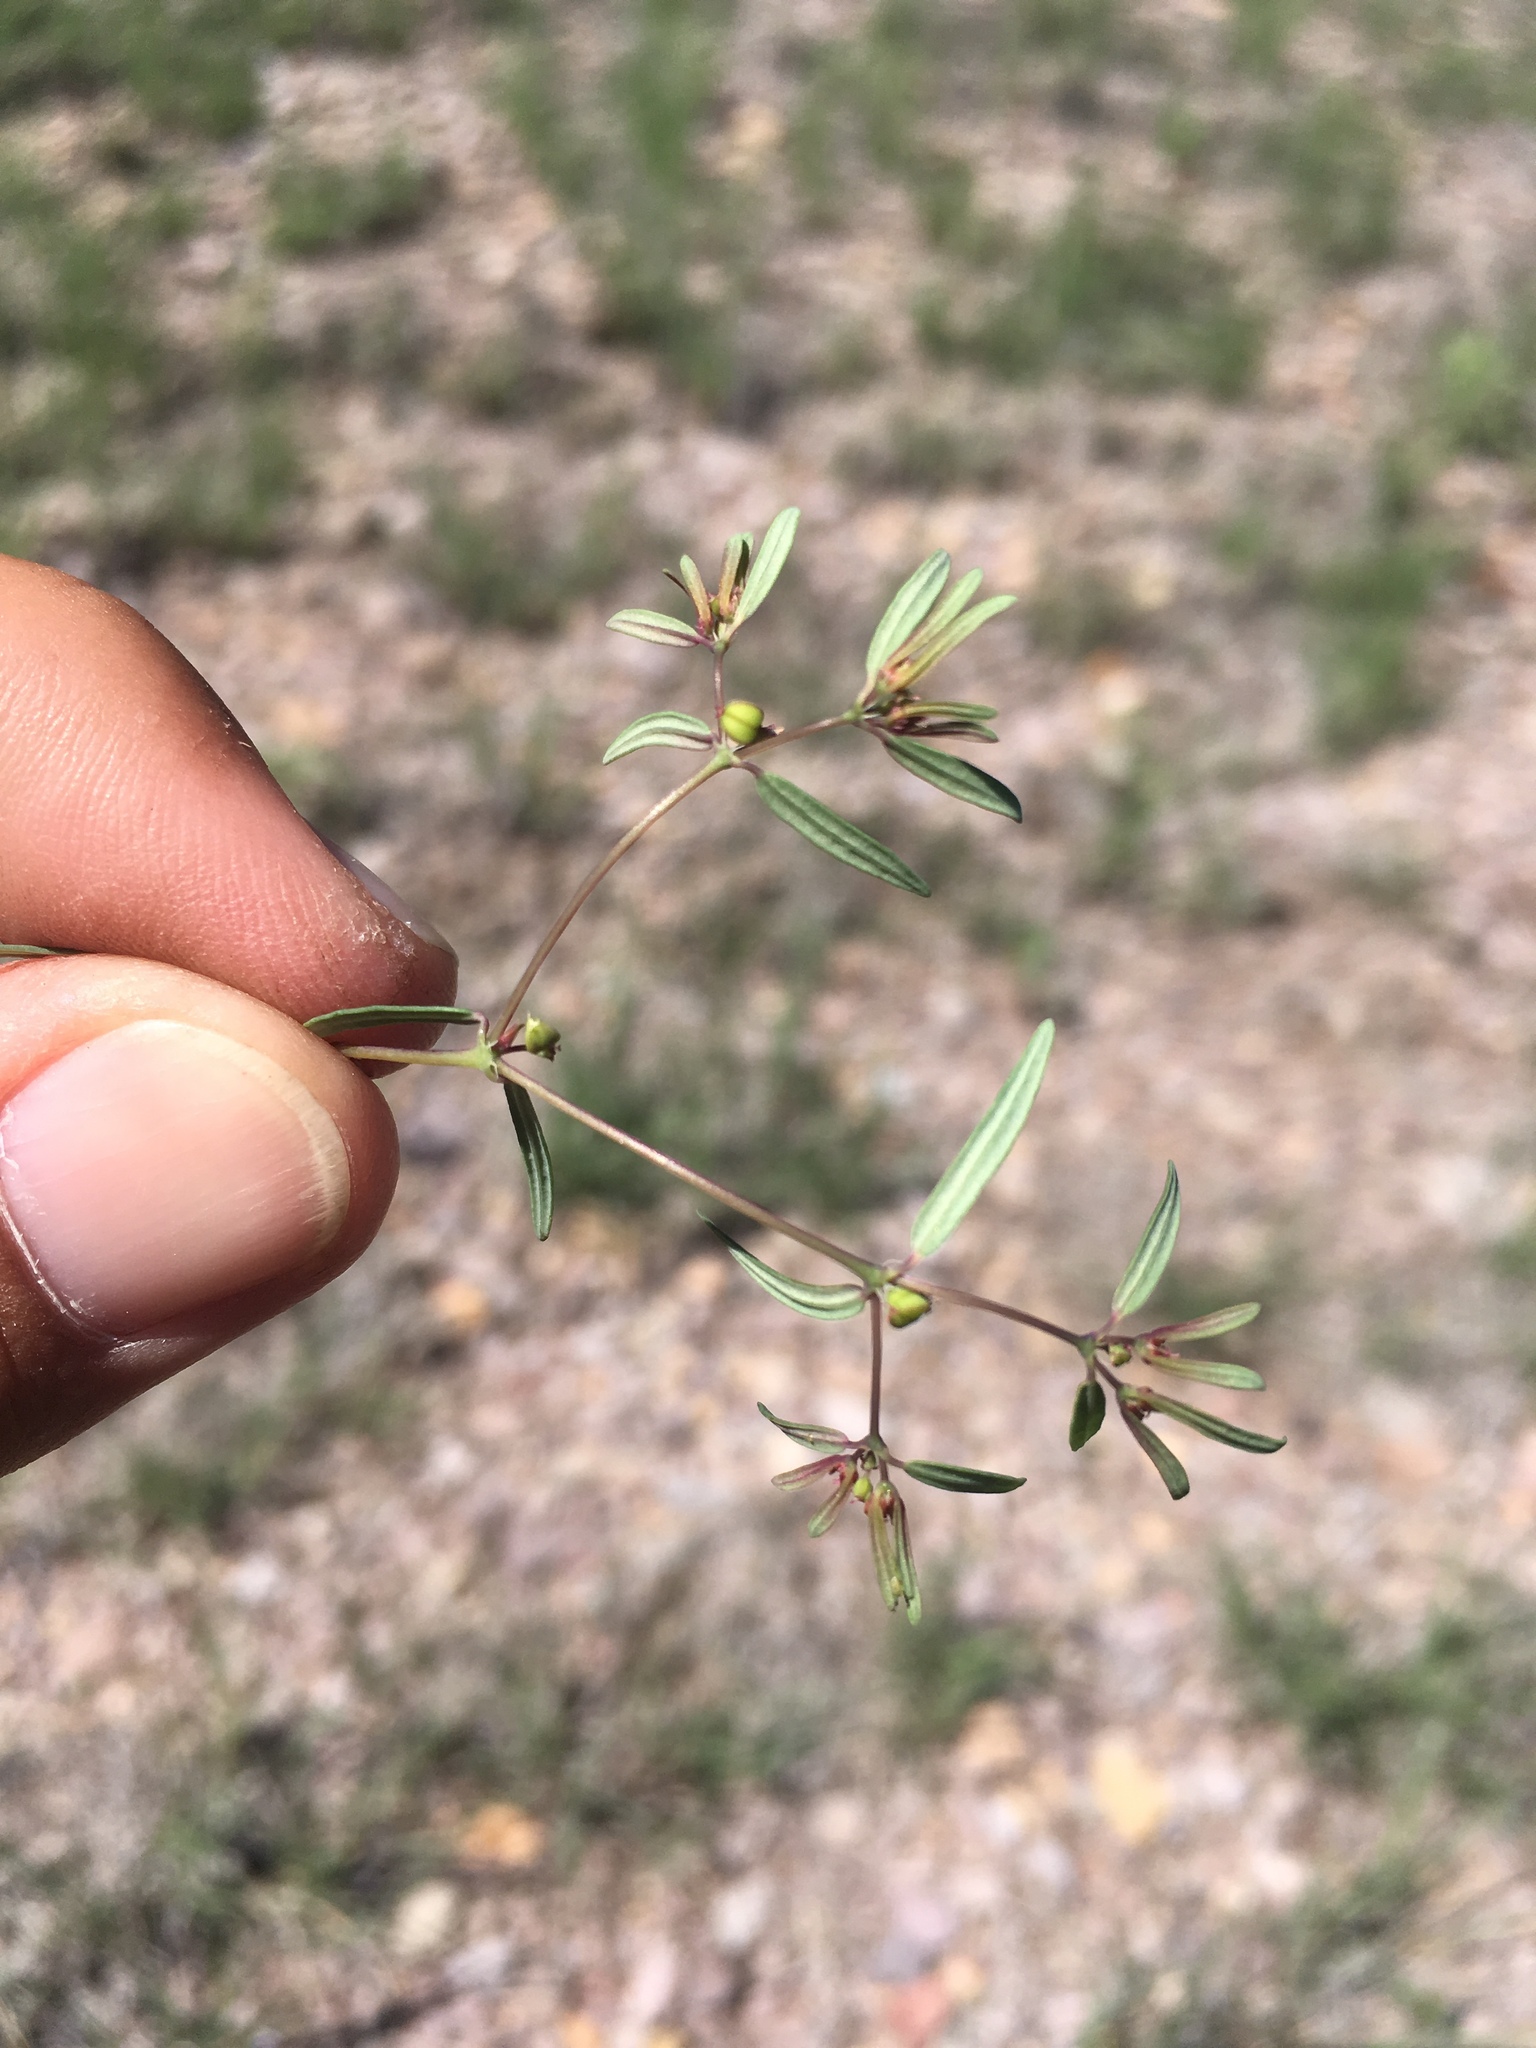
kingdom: Plantae
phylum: Tracheophyta
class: Magnoliopsida
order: Malpighiales
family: Euphorbiaceae
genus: Euphorbia
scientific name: Euphorbia revoluta
